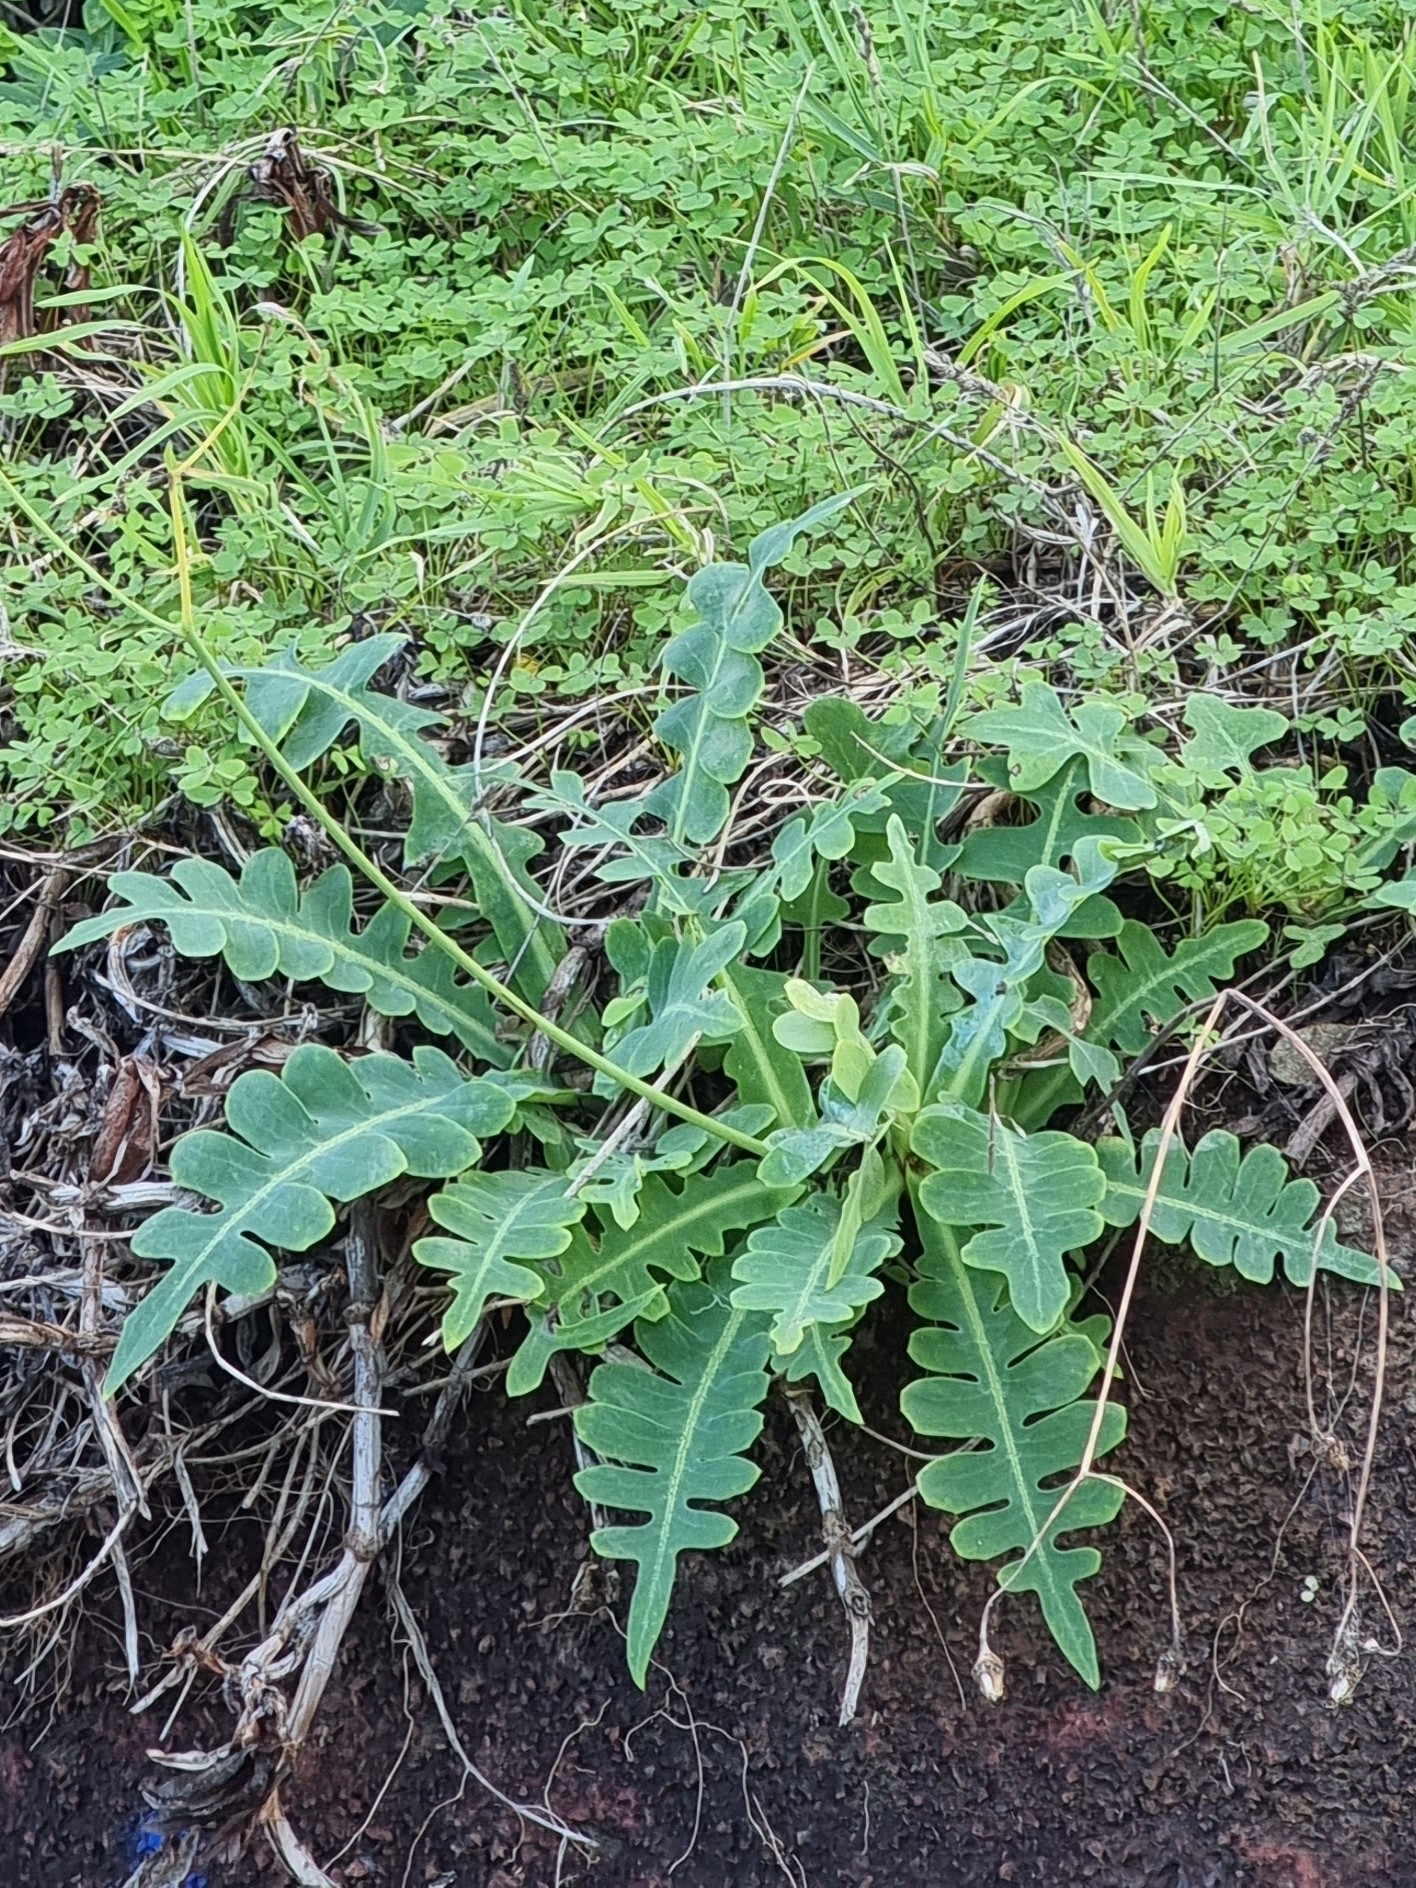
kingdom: Plantae
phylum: Tracheophyta
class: Magnoliopsida
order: Asterales
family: Asteraceae
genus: Sonchus
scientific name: Sonchus latifolius
